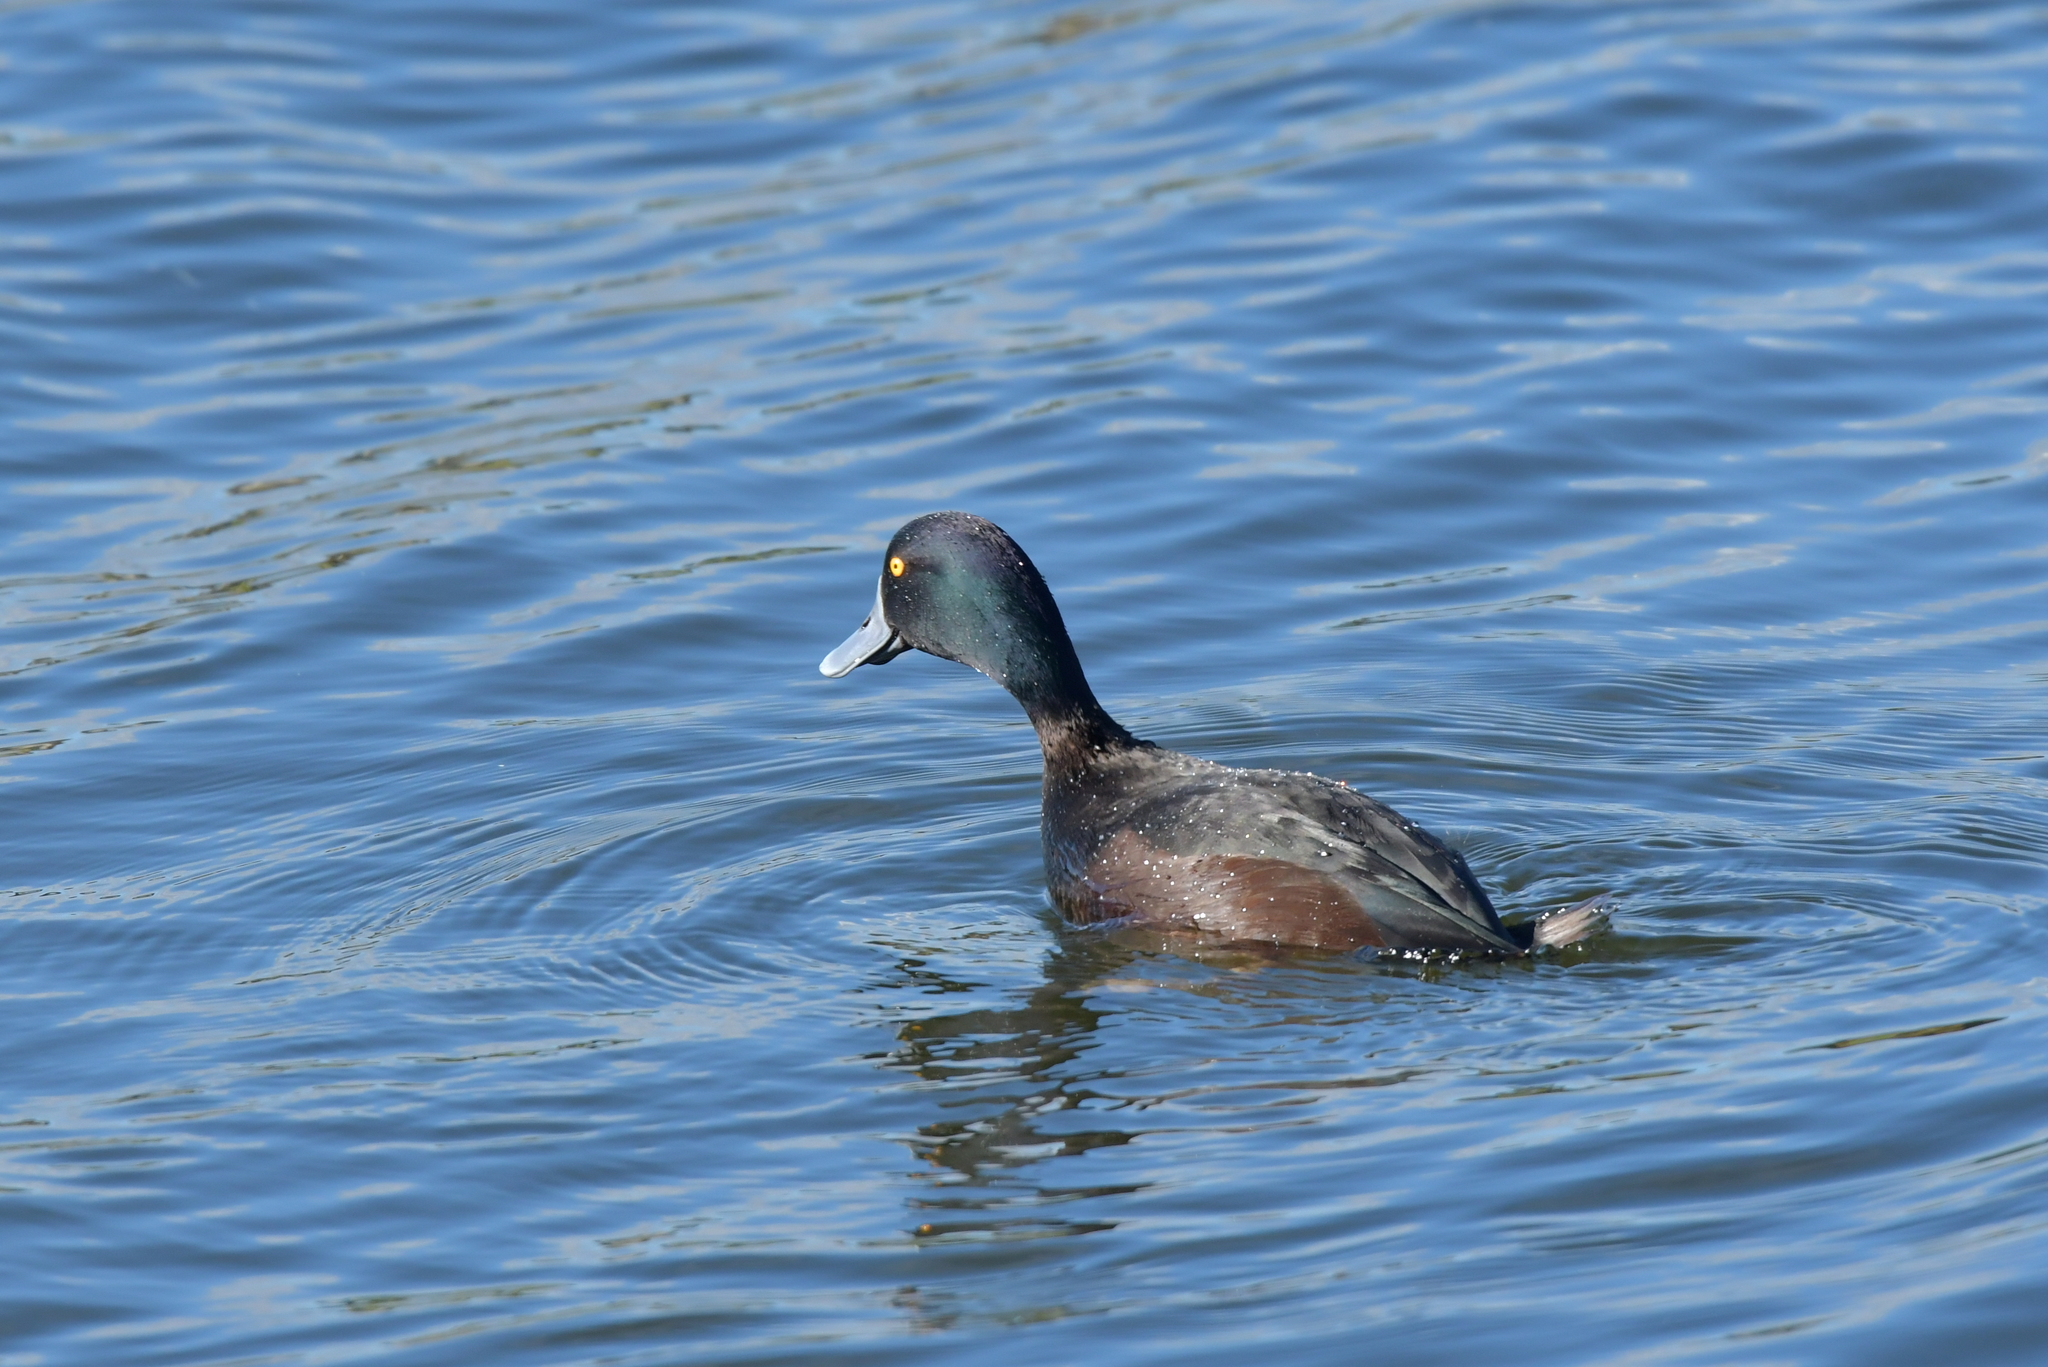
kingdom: Animalia
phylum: Chordata
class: Aves
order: Anseriformes
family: Anatidae
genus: Aythya
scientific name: Aythya novaeseelandiae
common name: New zealand scaup
